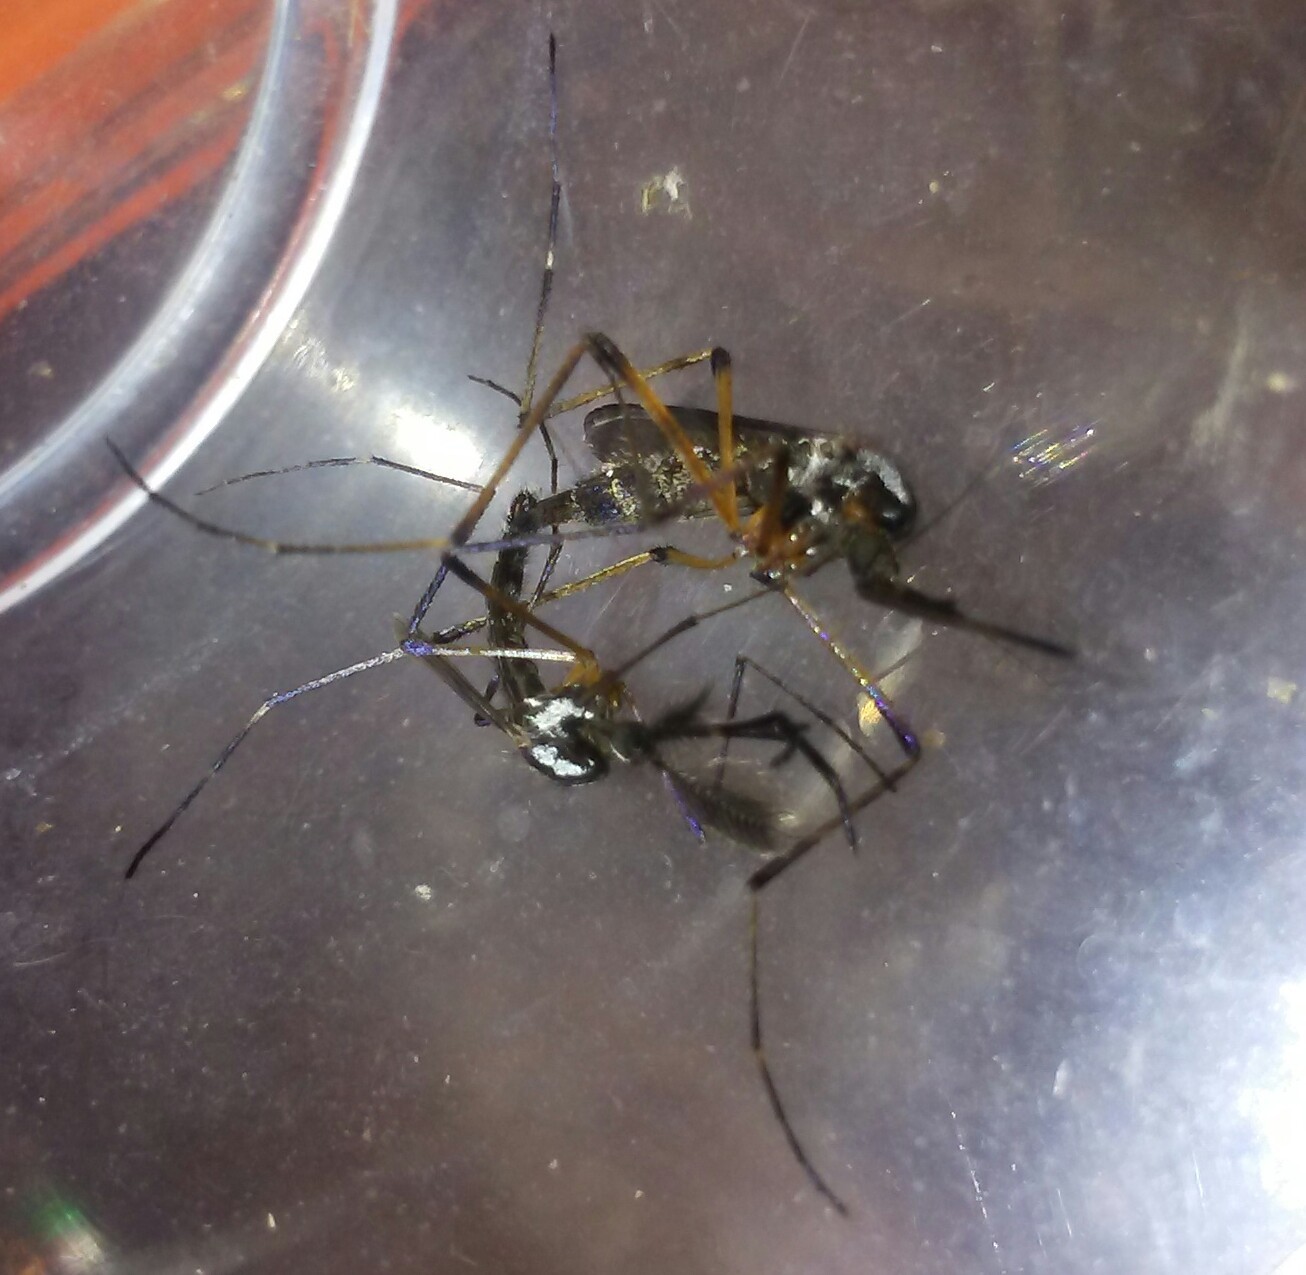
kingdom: Animalia
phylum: Arthropoda
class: Insecta
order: Diptera
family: Culicidae
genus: Psorophora
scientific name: Psorophora howardii
